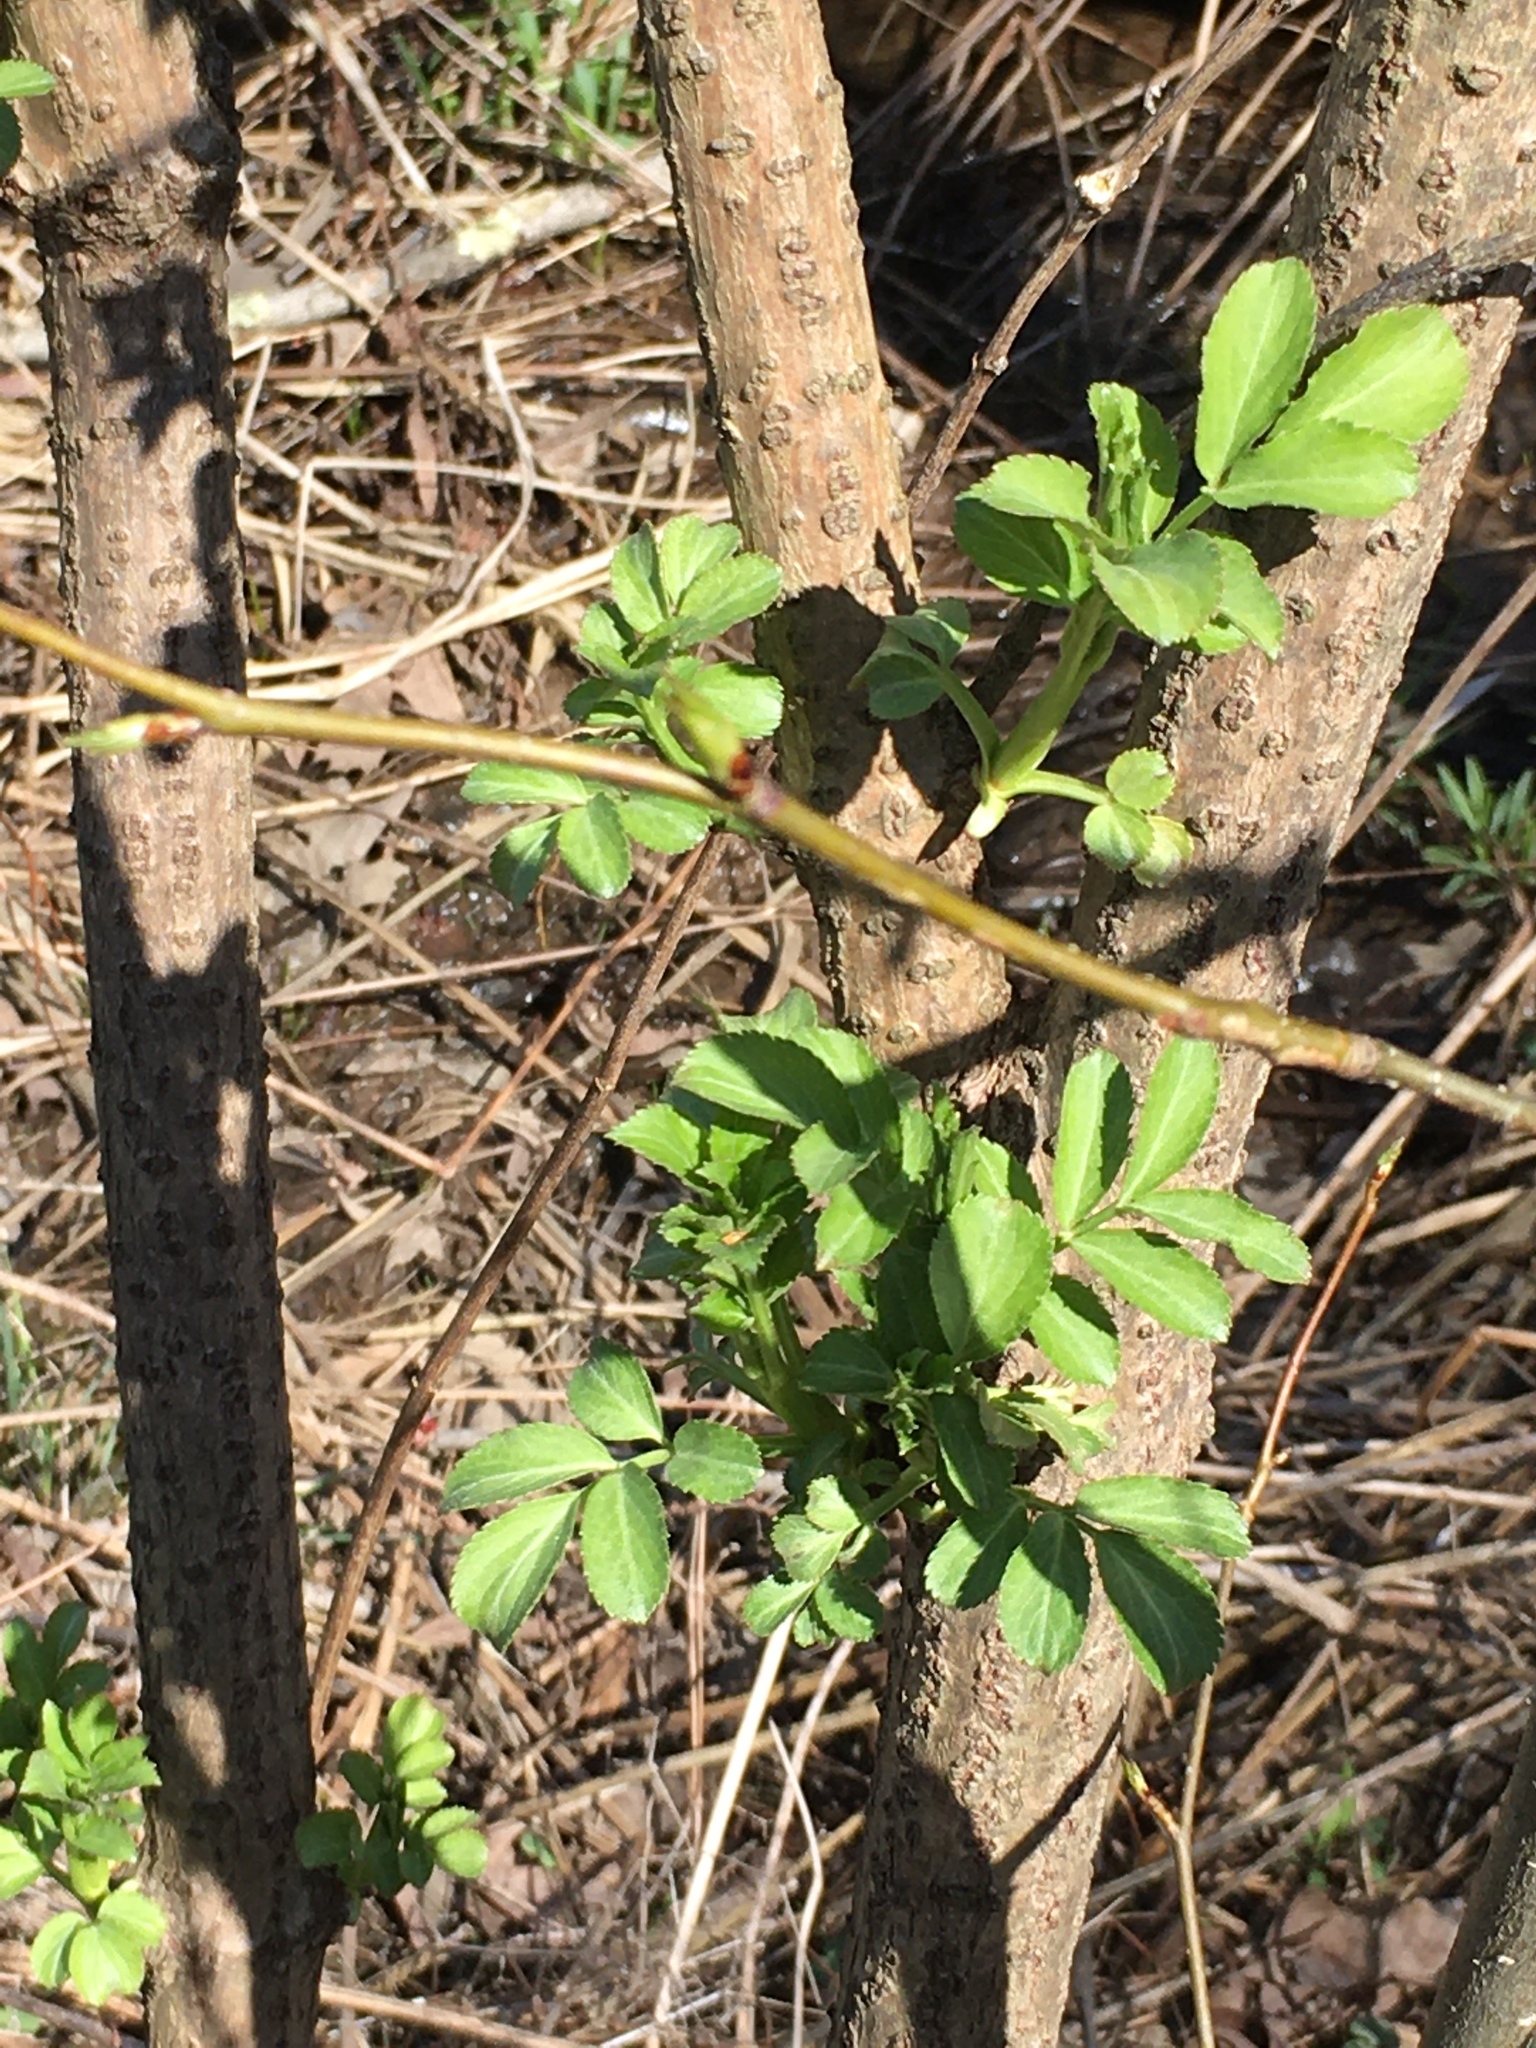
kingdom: Plantae
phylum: Tracheophyta
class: Magnoliopsida
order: Dipsacales
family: Viburnaceae
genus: Sambucus
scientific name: Sambucus canadensis
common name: American elder
